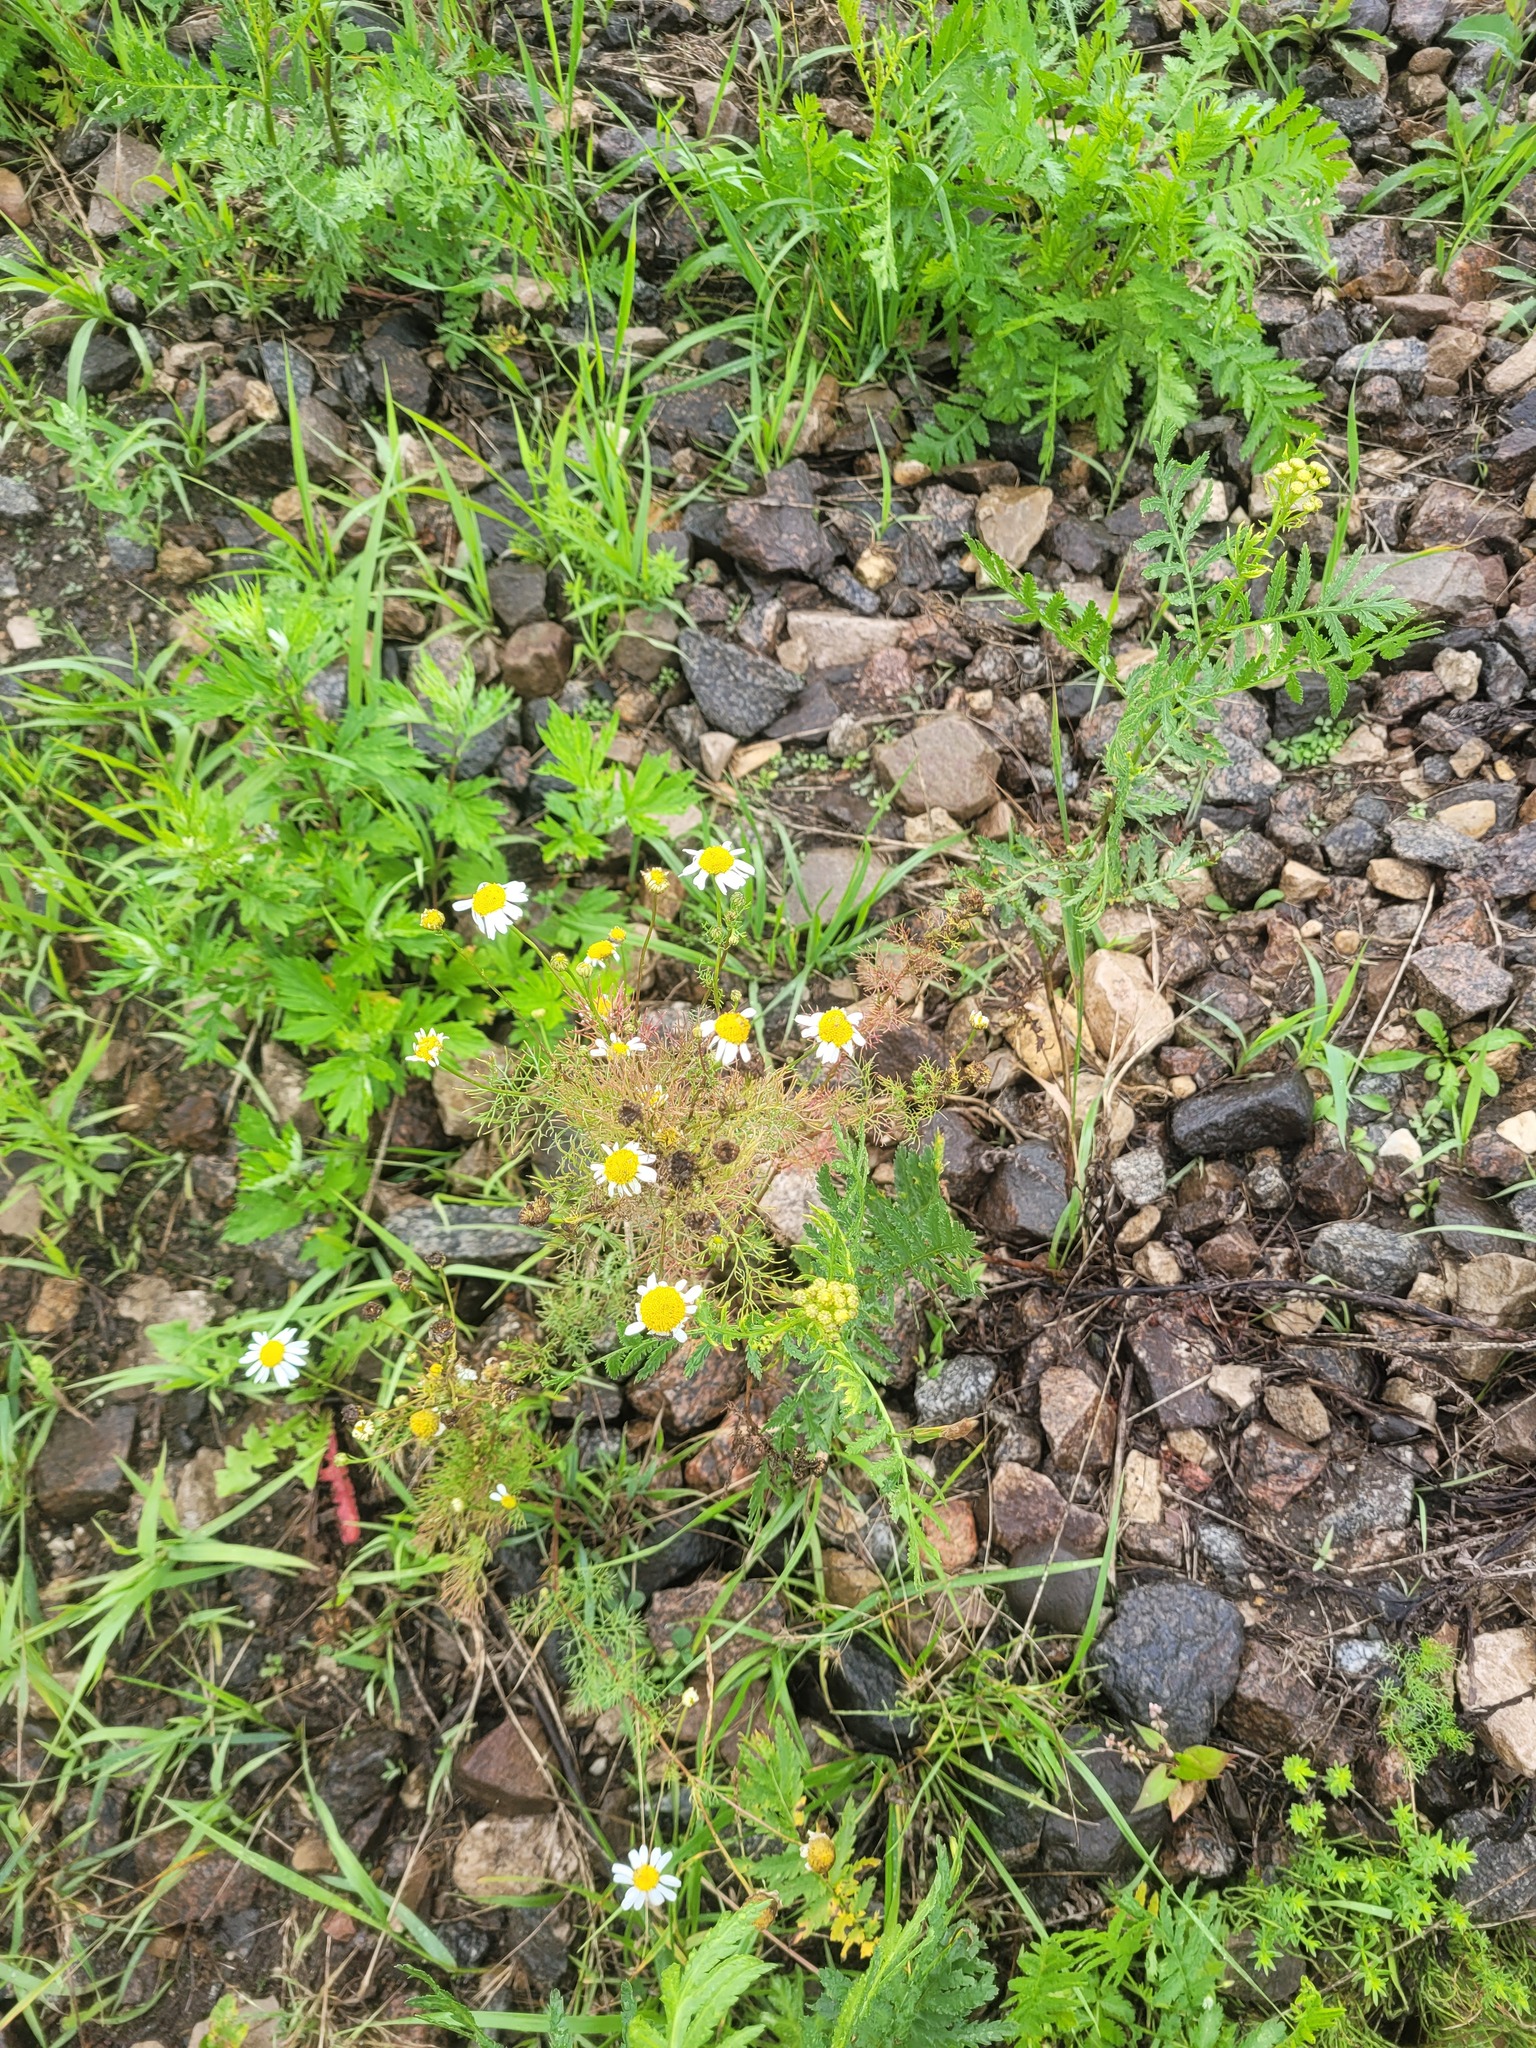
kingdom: Plantae
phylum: Tracheophyta
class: Magnoliopsida
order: Asterales
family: Asteraceae
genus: Tripleurospermum
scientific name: Tripleurospermum inodorum
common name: Scentless mayweed
